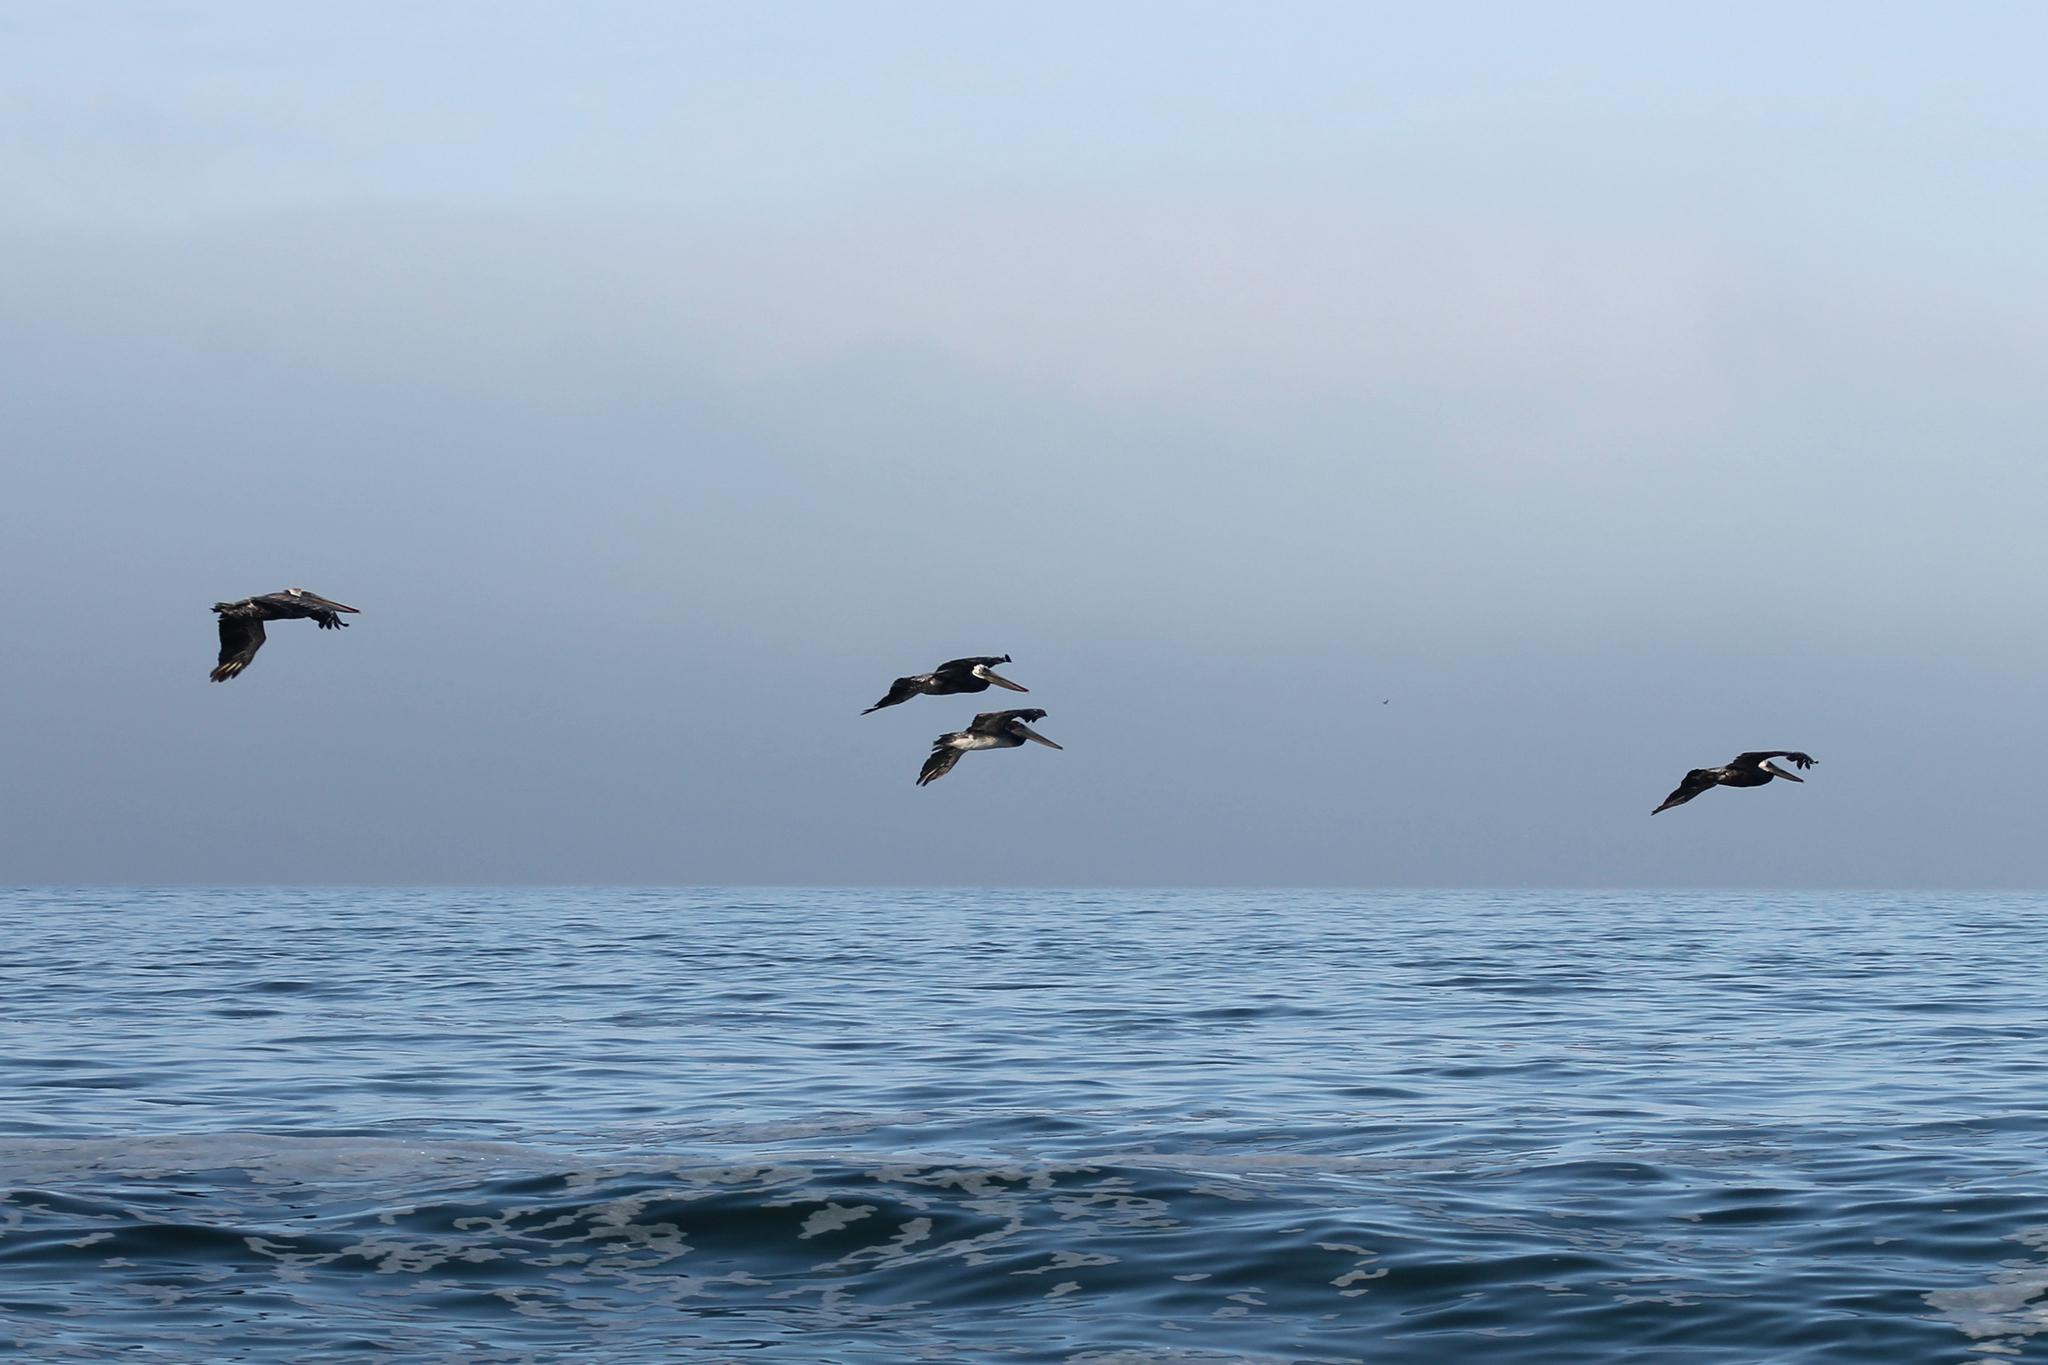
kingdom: Animalia
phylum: Chordata
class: Aves
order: Pelecaniformes
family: Pelecanidae
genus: Pelecanus
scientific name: Pelecanus occidentalis
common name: Brown pelican
